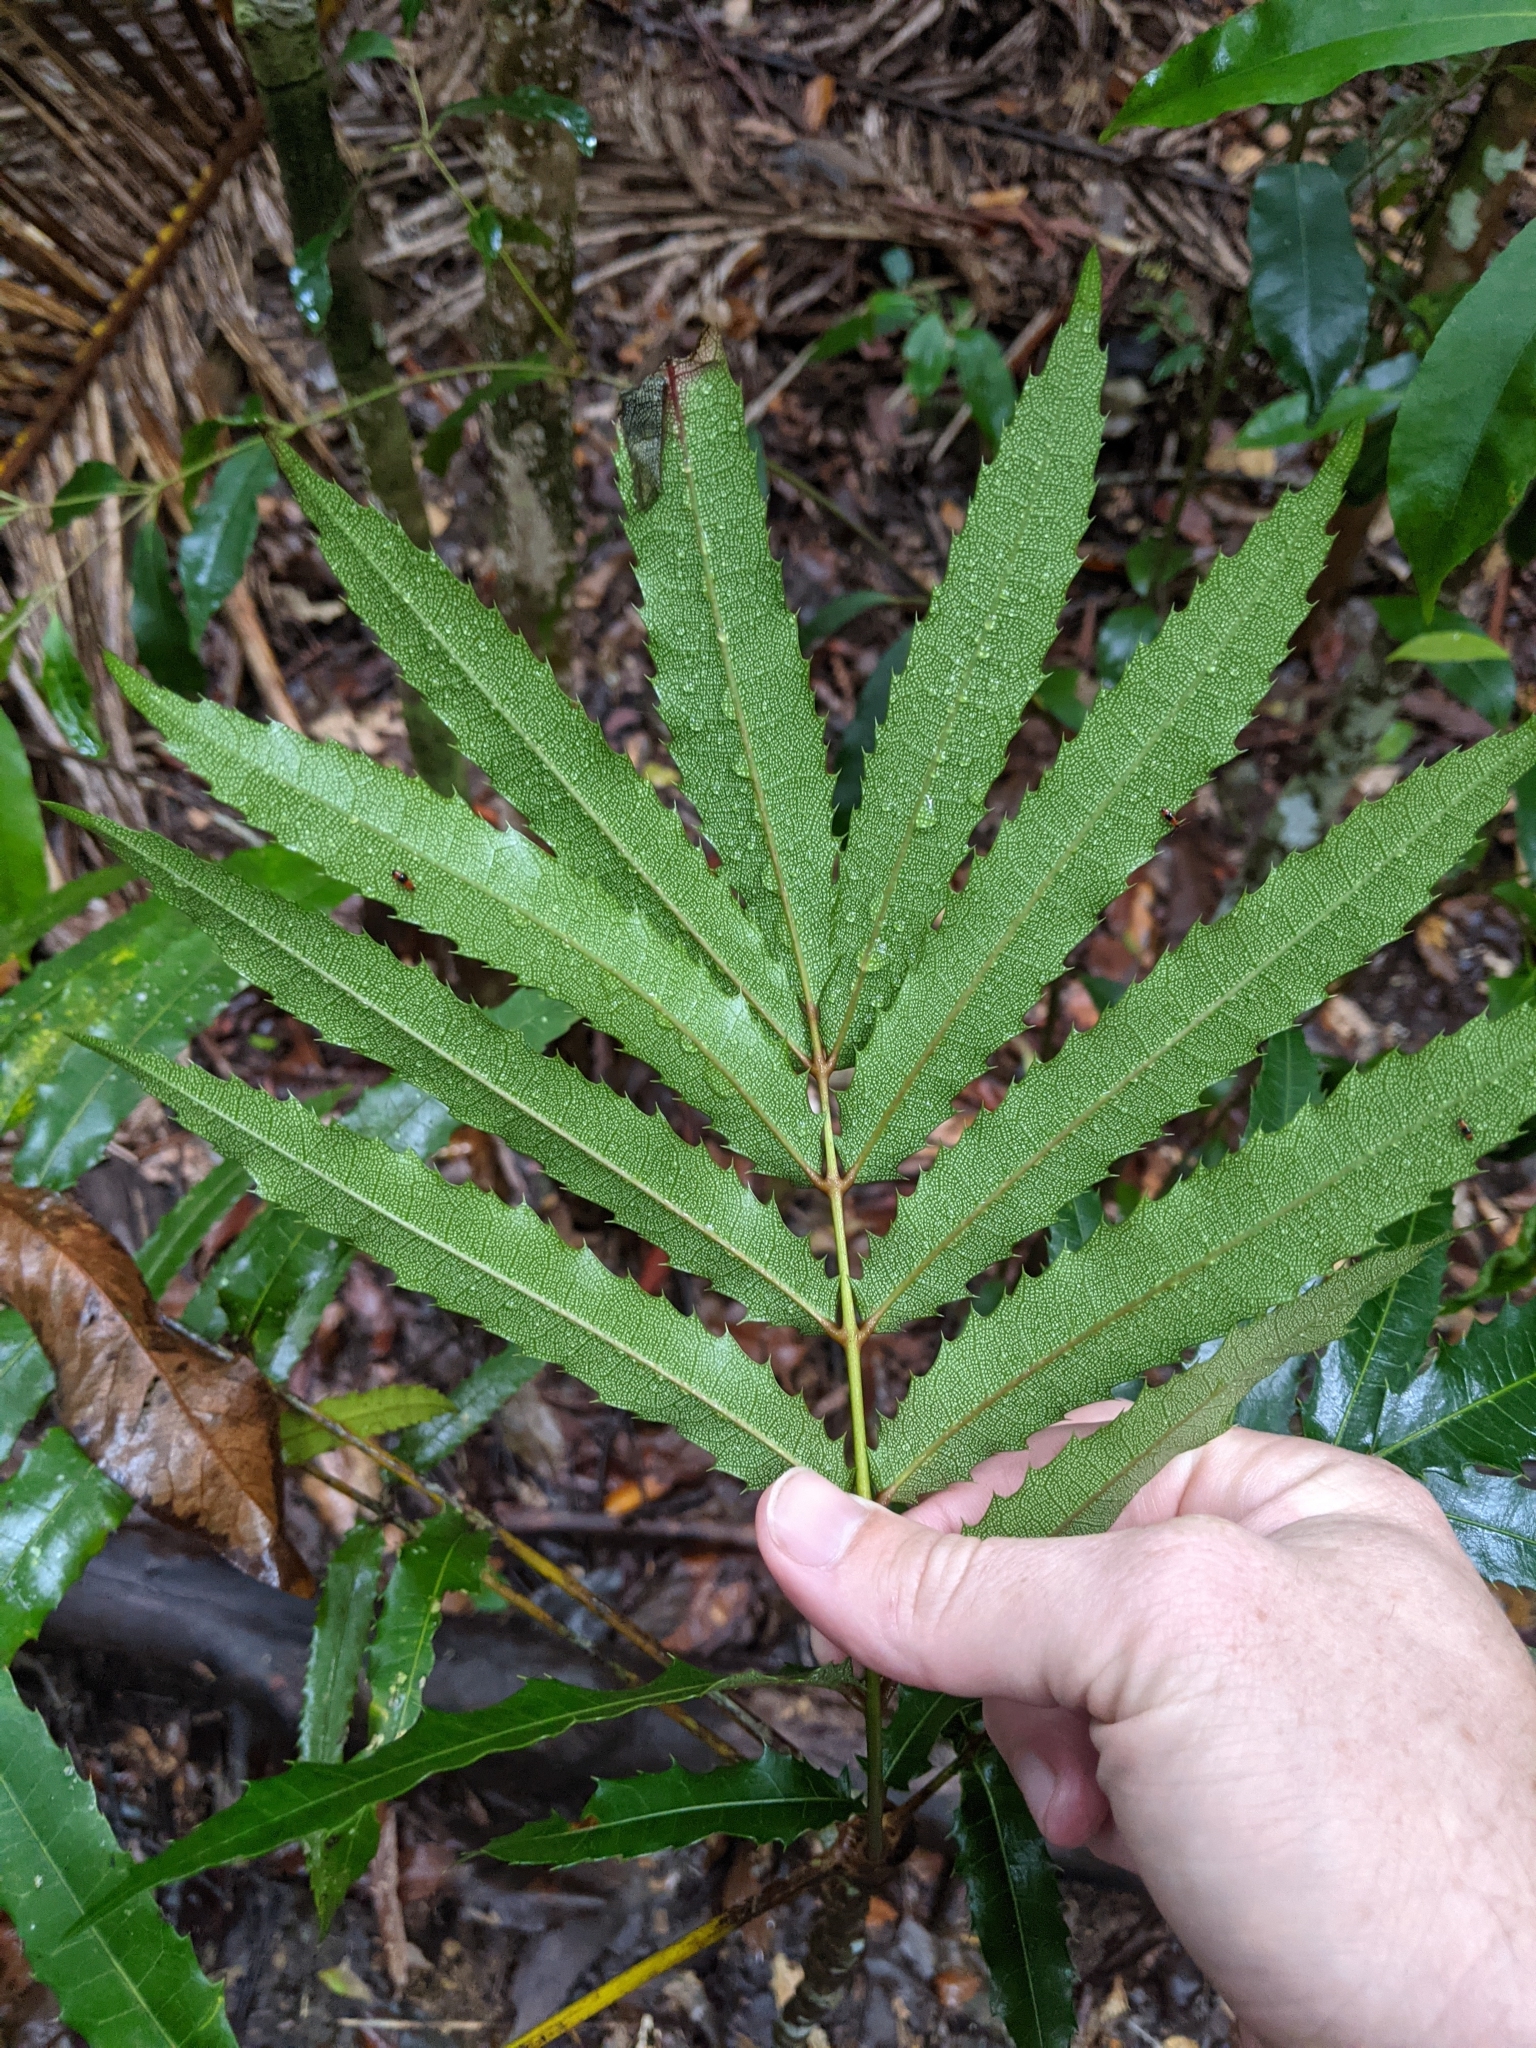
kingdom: Plantae
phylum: Tracheophyta
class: Magnoliopsida
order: Brassicales
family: Akaniaceae
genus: Akania
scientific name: Akania bidwillii
